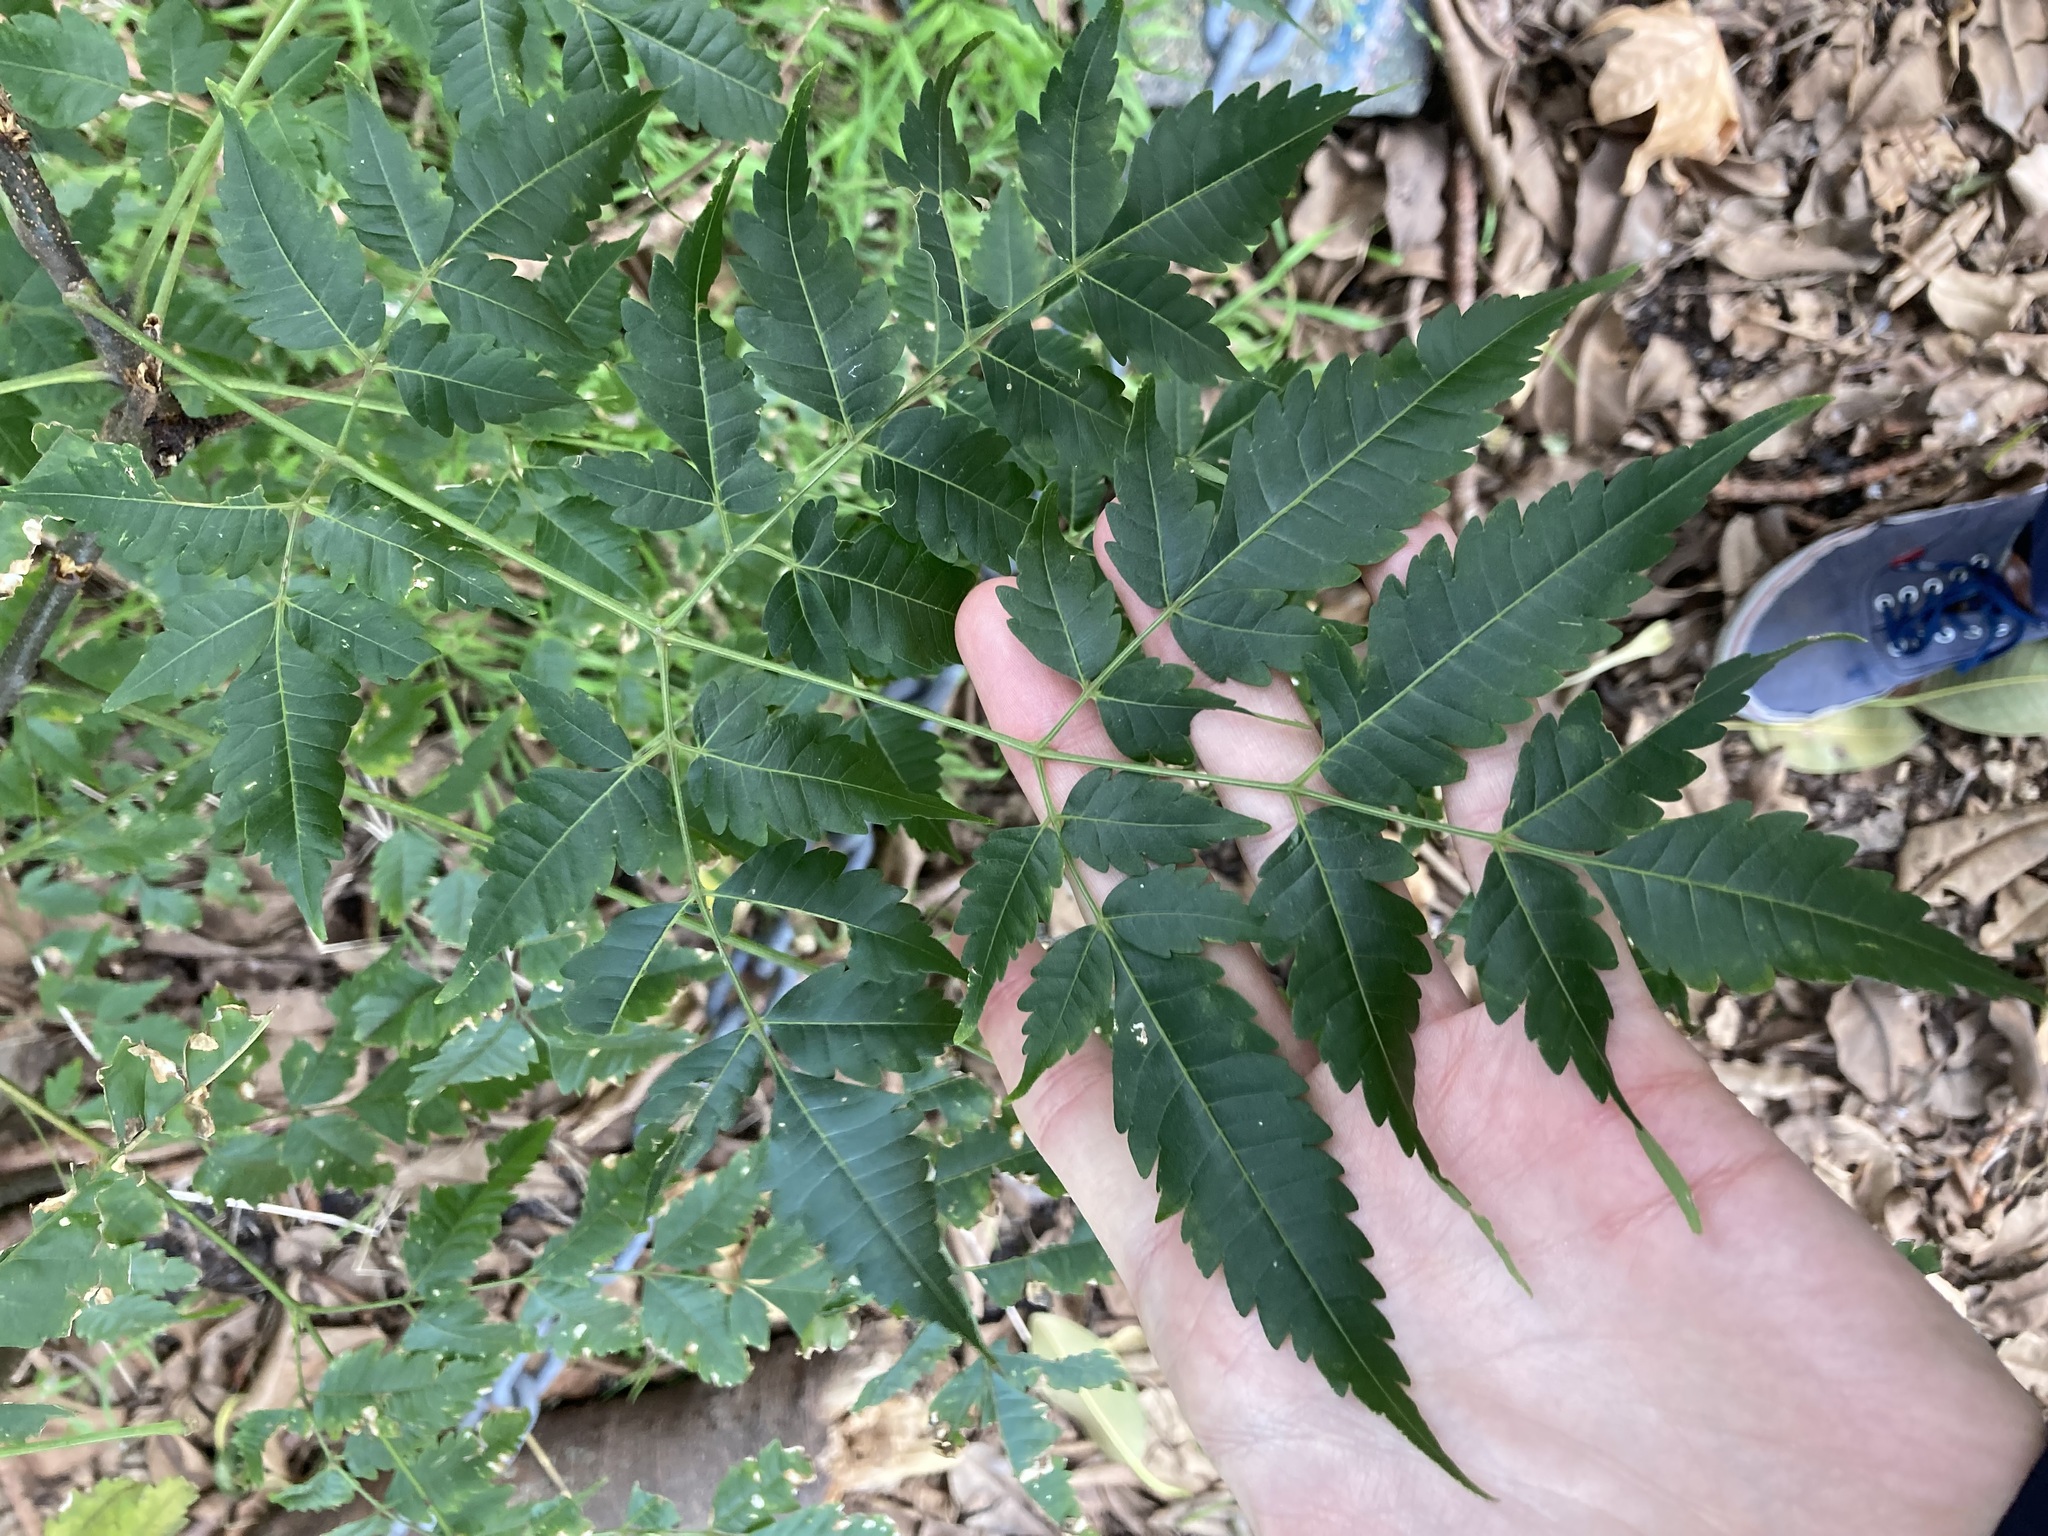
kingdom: Plantae
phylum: Tracheophyta
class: Magnoliopsida
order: Sapindales
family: Meliaceae
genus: Melia
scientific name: Melia azedarach
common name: Chinaberrytree
